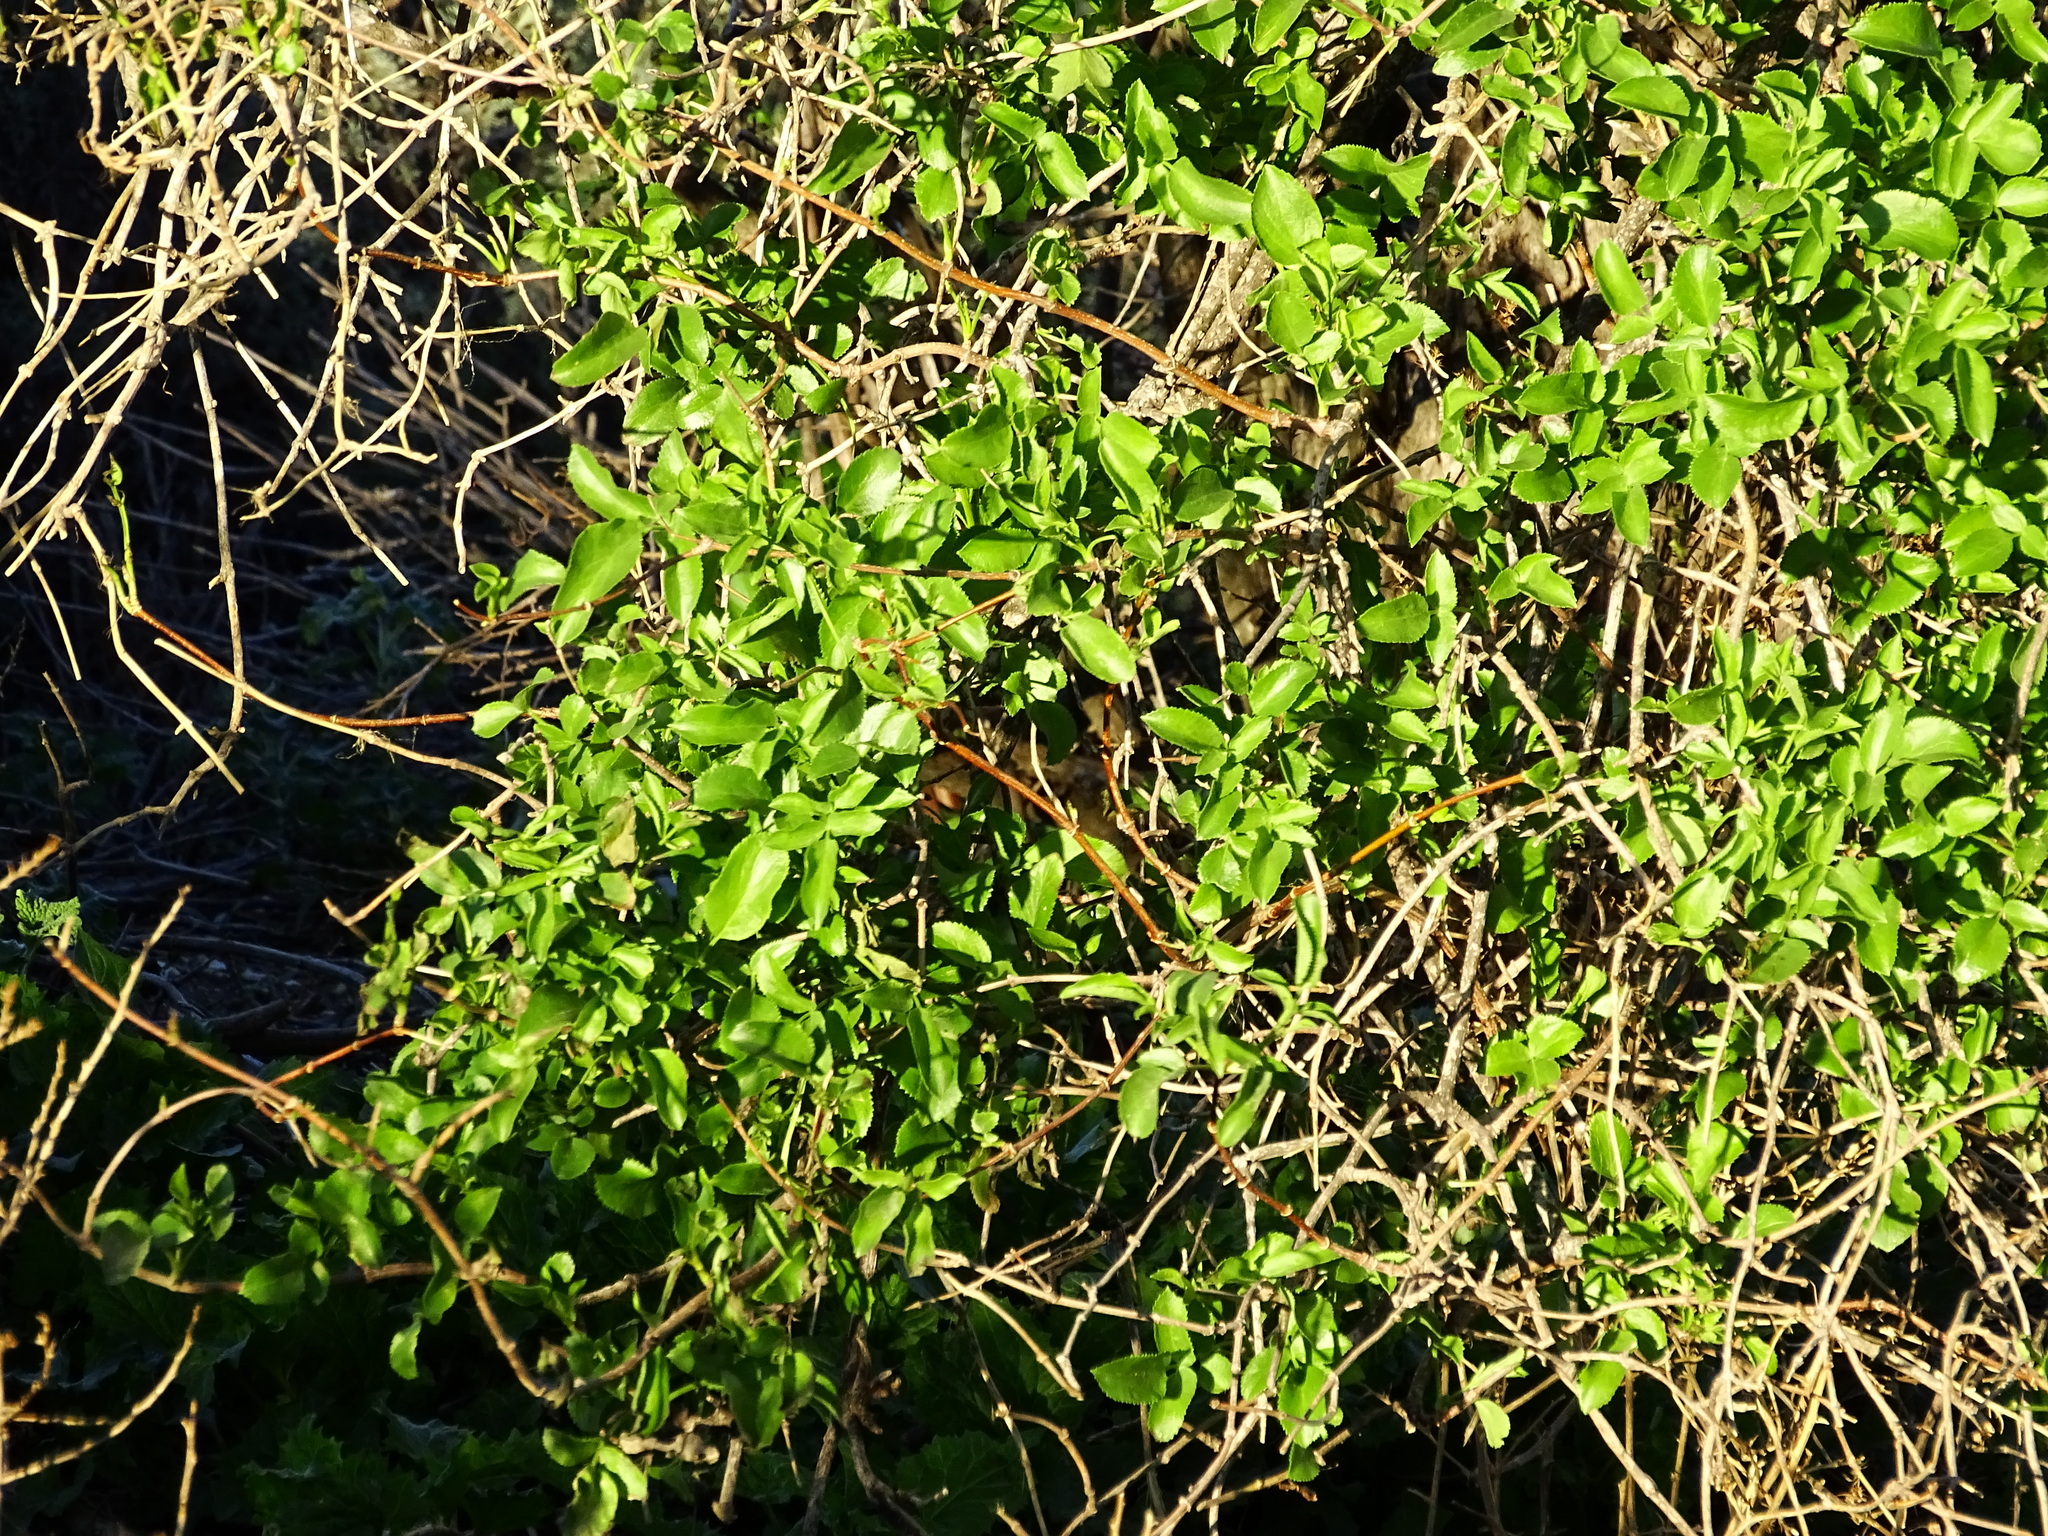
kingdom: Plantae
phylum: Tracheophyta
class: Magnoliopsida
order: Dipsacales
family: Viburnaceae
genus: Sambucus
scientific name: Sambucus cerulea
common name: Blue elder
